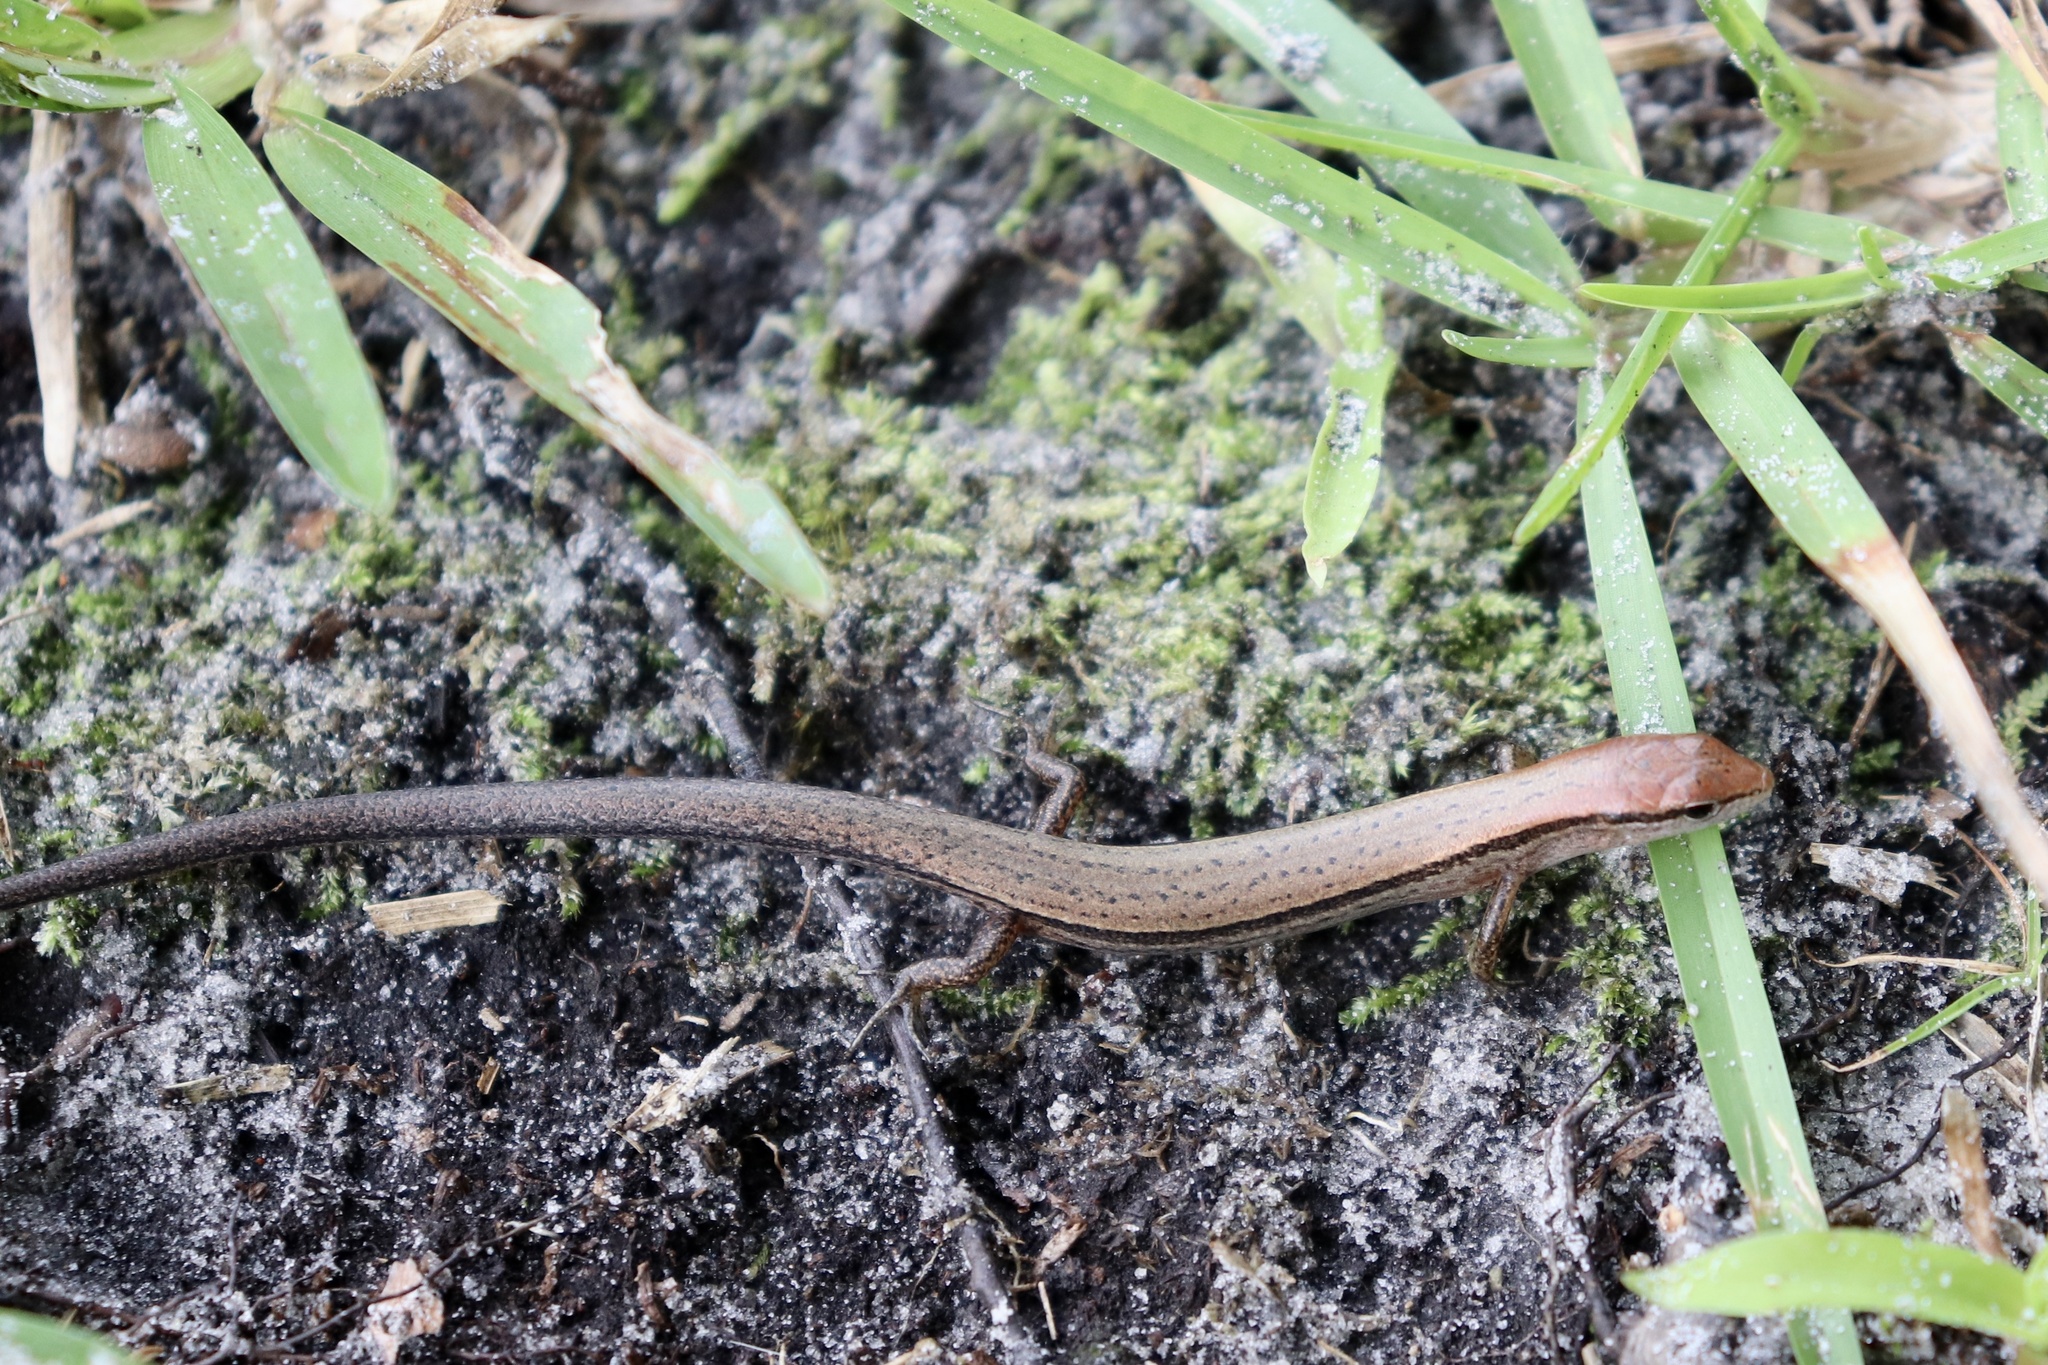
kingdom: Animalia
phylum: Chordata
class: Squamata
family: Scincidae
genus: Scincella
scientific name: Scincella lateralis
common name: Ground skink
